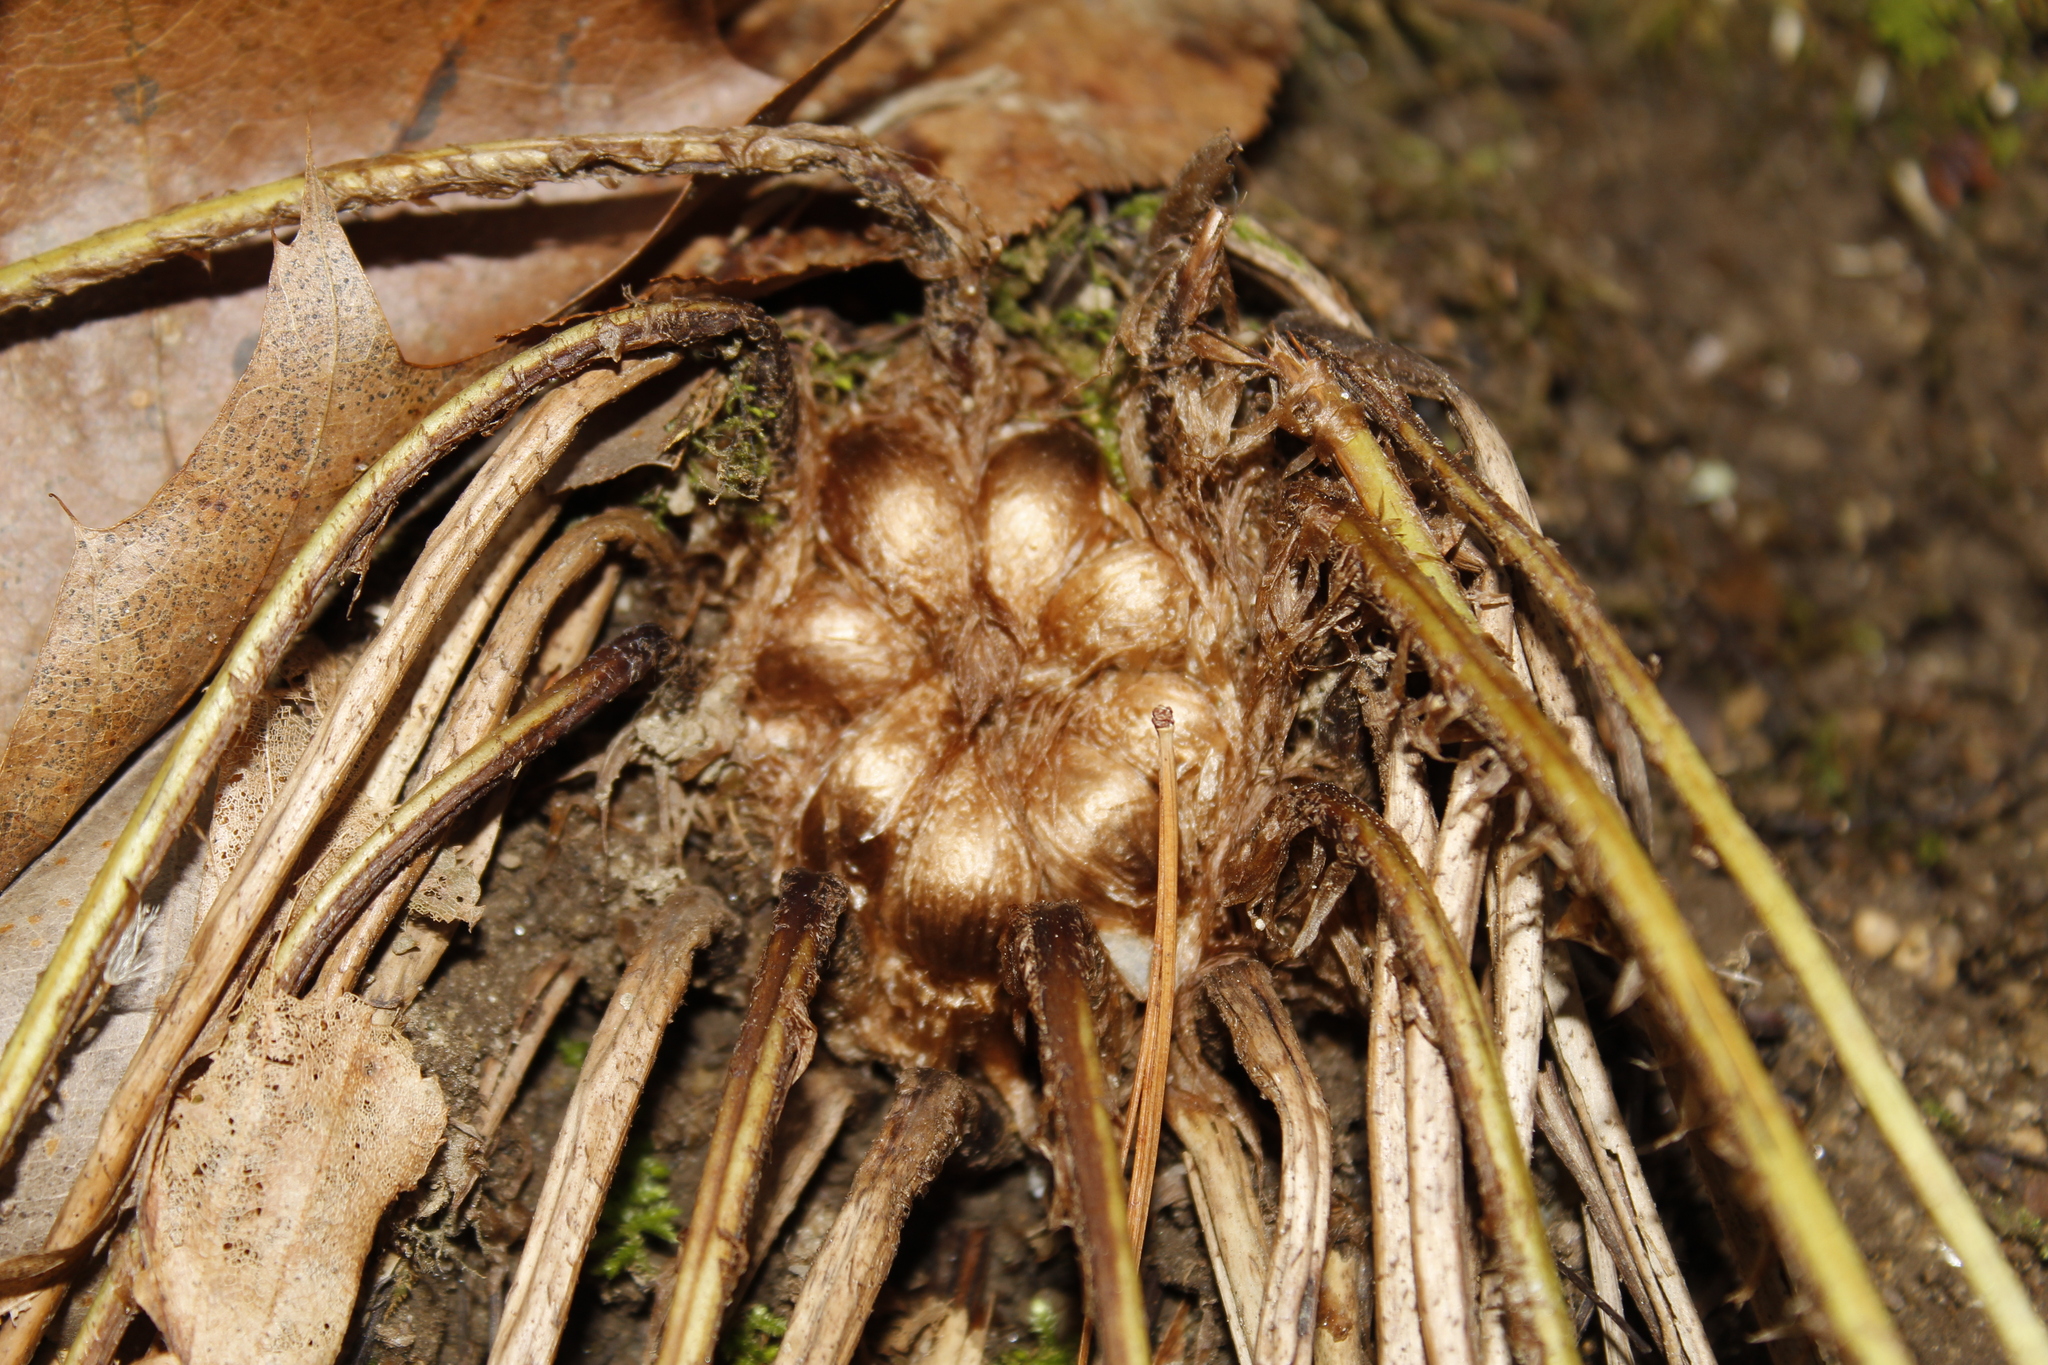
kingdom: Plantae
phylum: Tracheophyta
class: Polypodiopsida
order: Polypodiales
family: Dryopteridaceae
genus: Dryopteris
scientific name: Dryopteris marginalis
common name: Marginal wood fern
